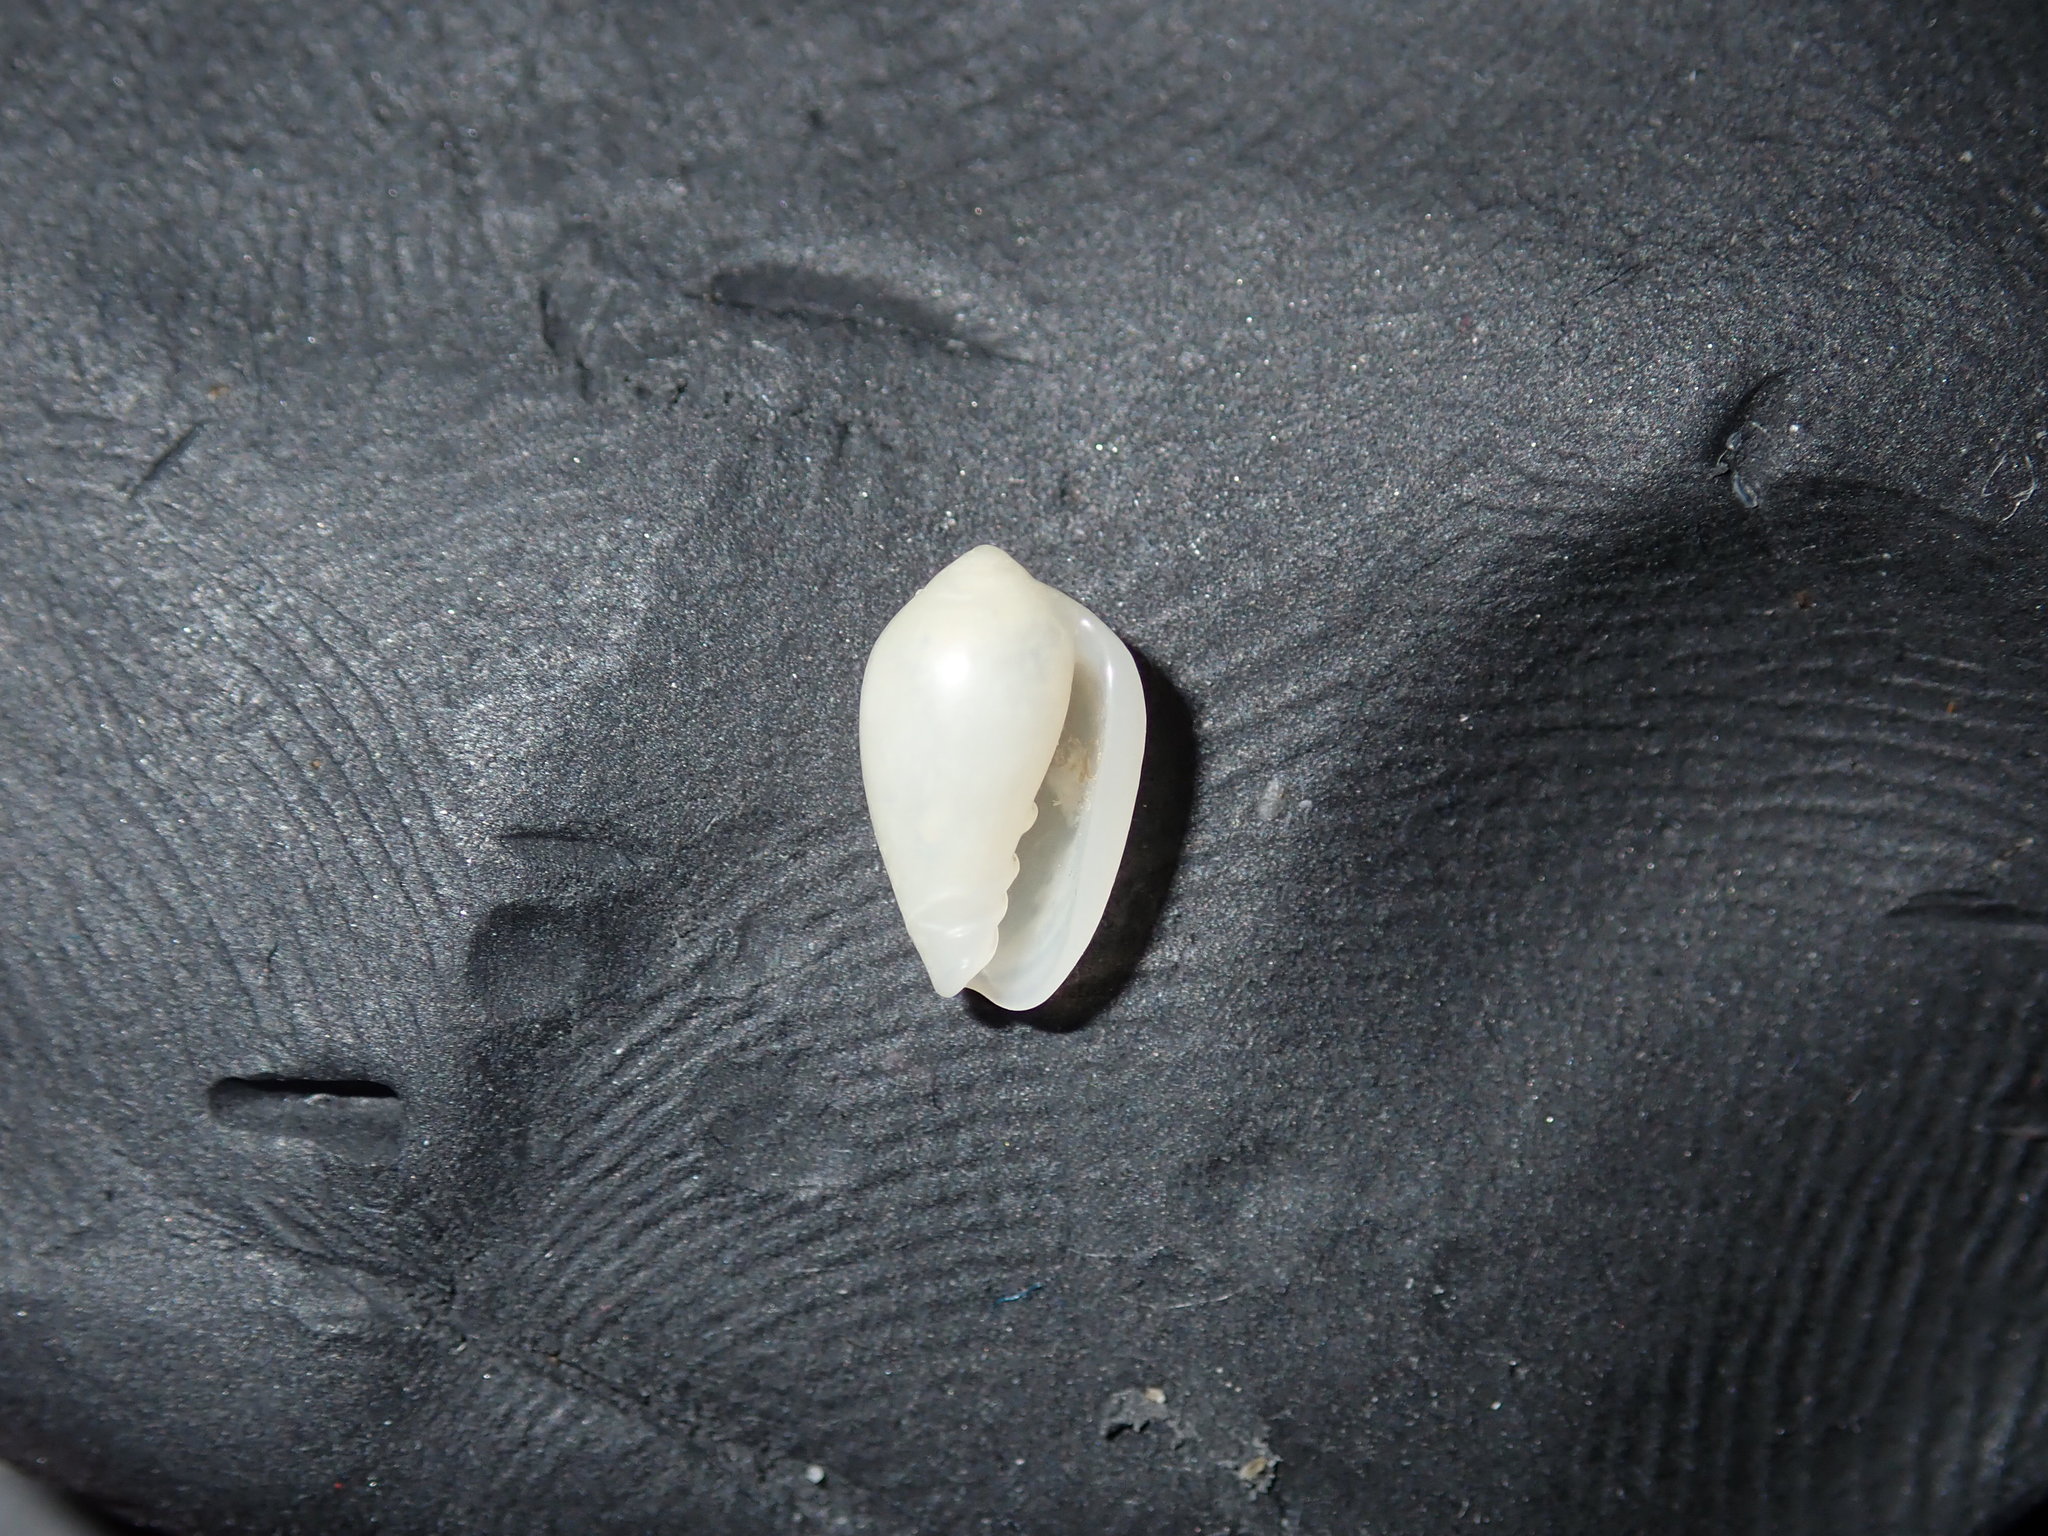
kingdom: Animalia
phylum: Mollusca
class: Gastropoda
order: Neogastropoda
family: Marginellidae
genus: Mesoginella
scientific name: Mesoginella turbinata
